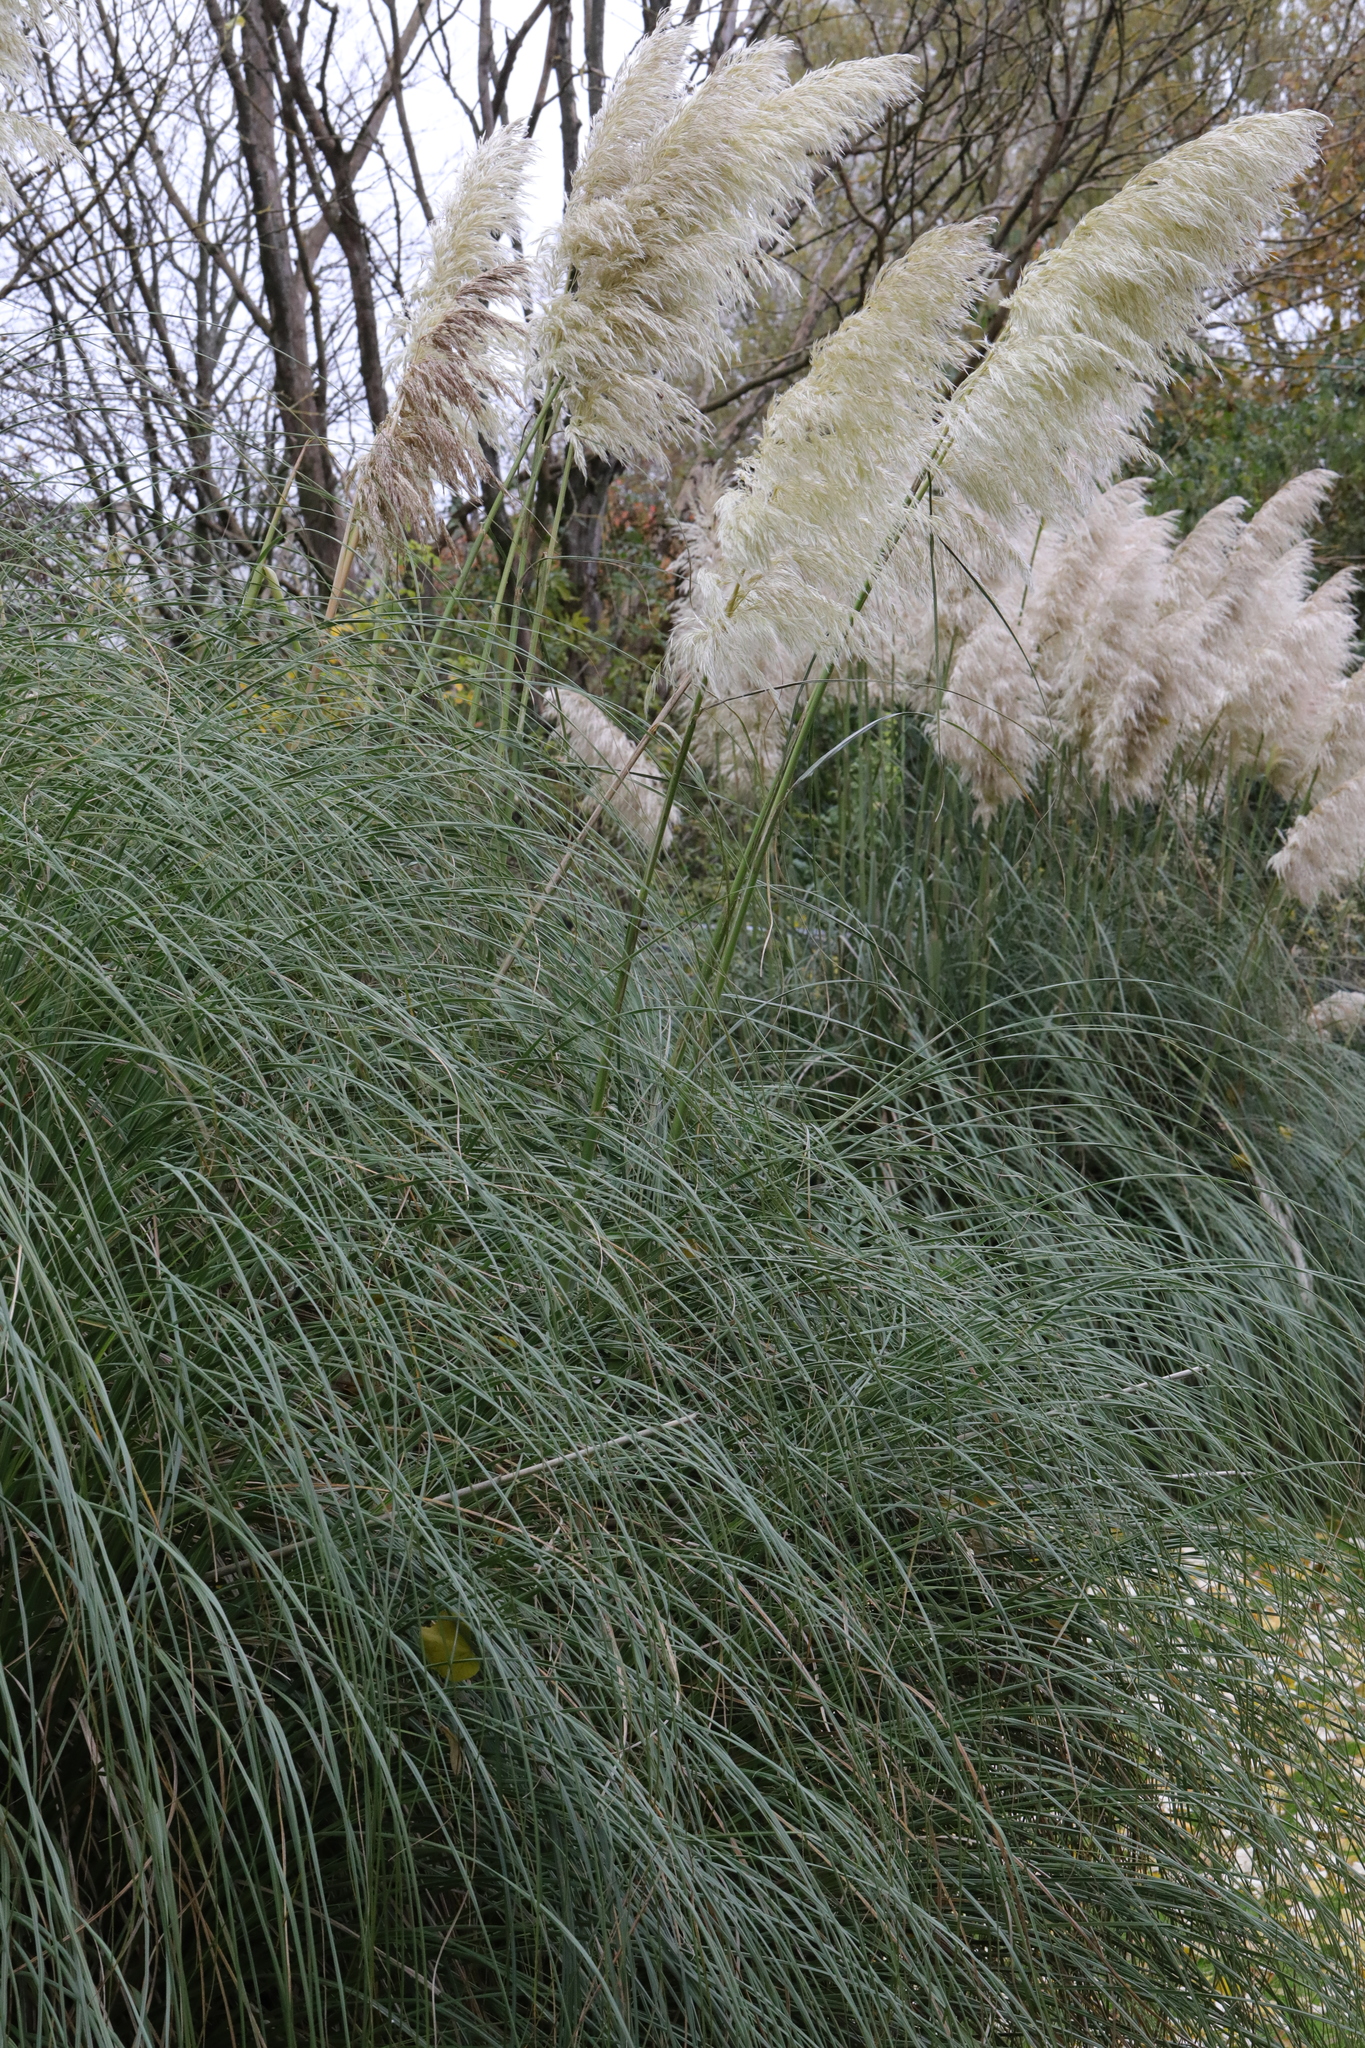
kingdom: Plantae
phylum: Tracheophyta
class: Liliopsida
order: Poales
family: Poaceae
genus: Cortaderia
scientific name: Cortaderia selloana
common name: Uruguayan pampas grass
